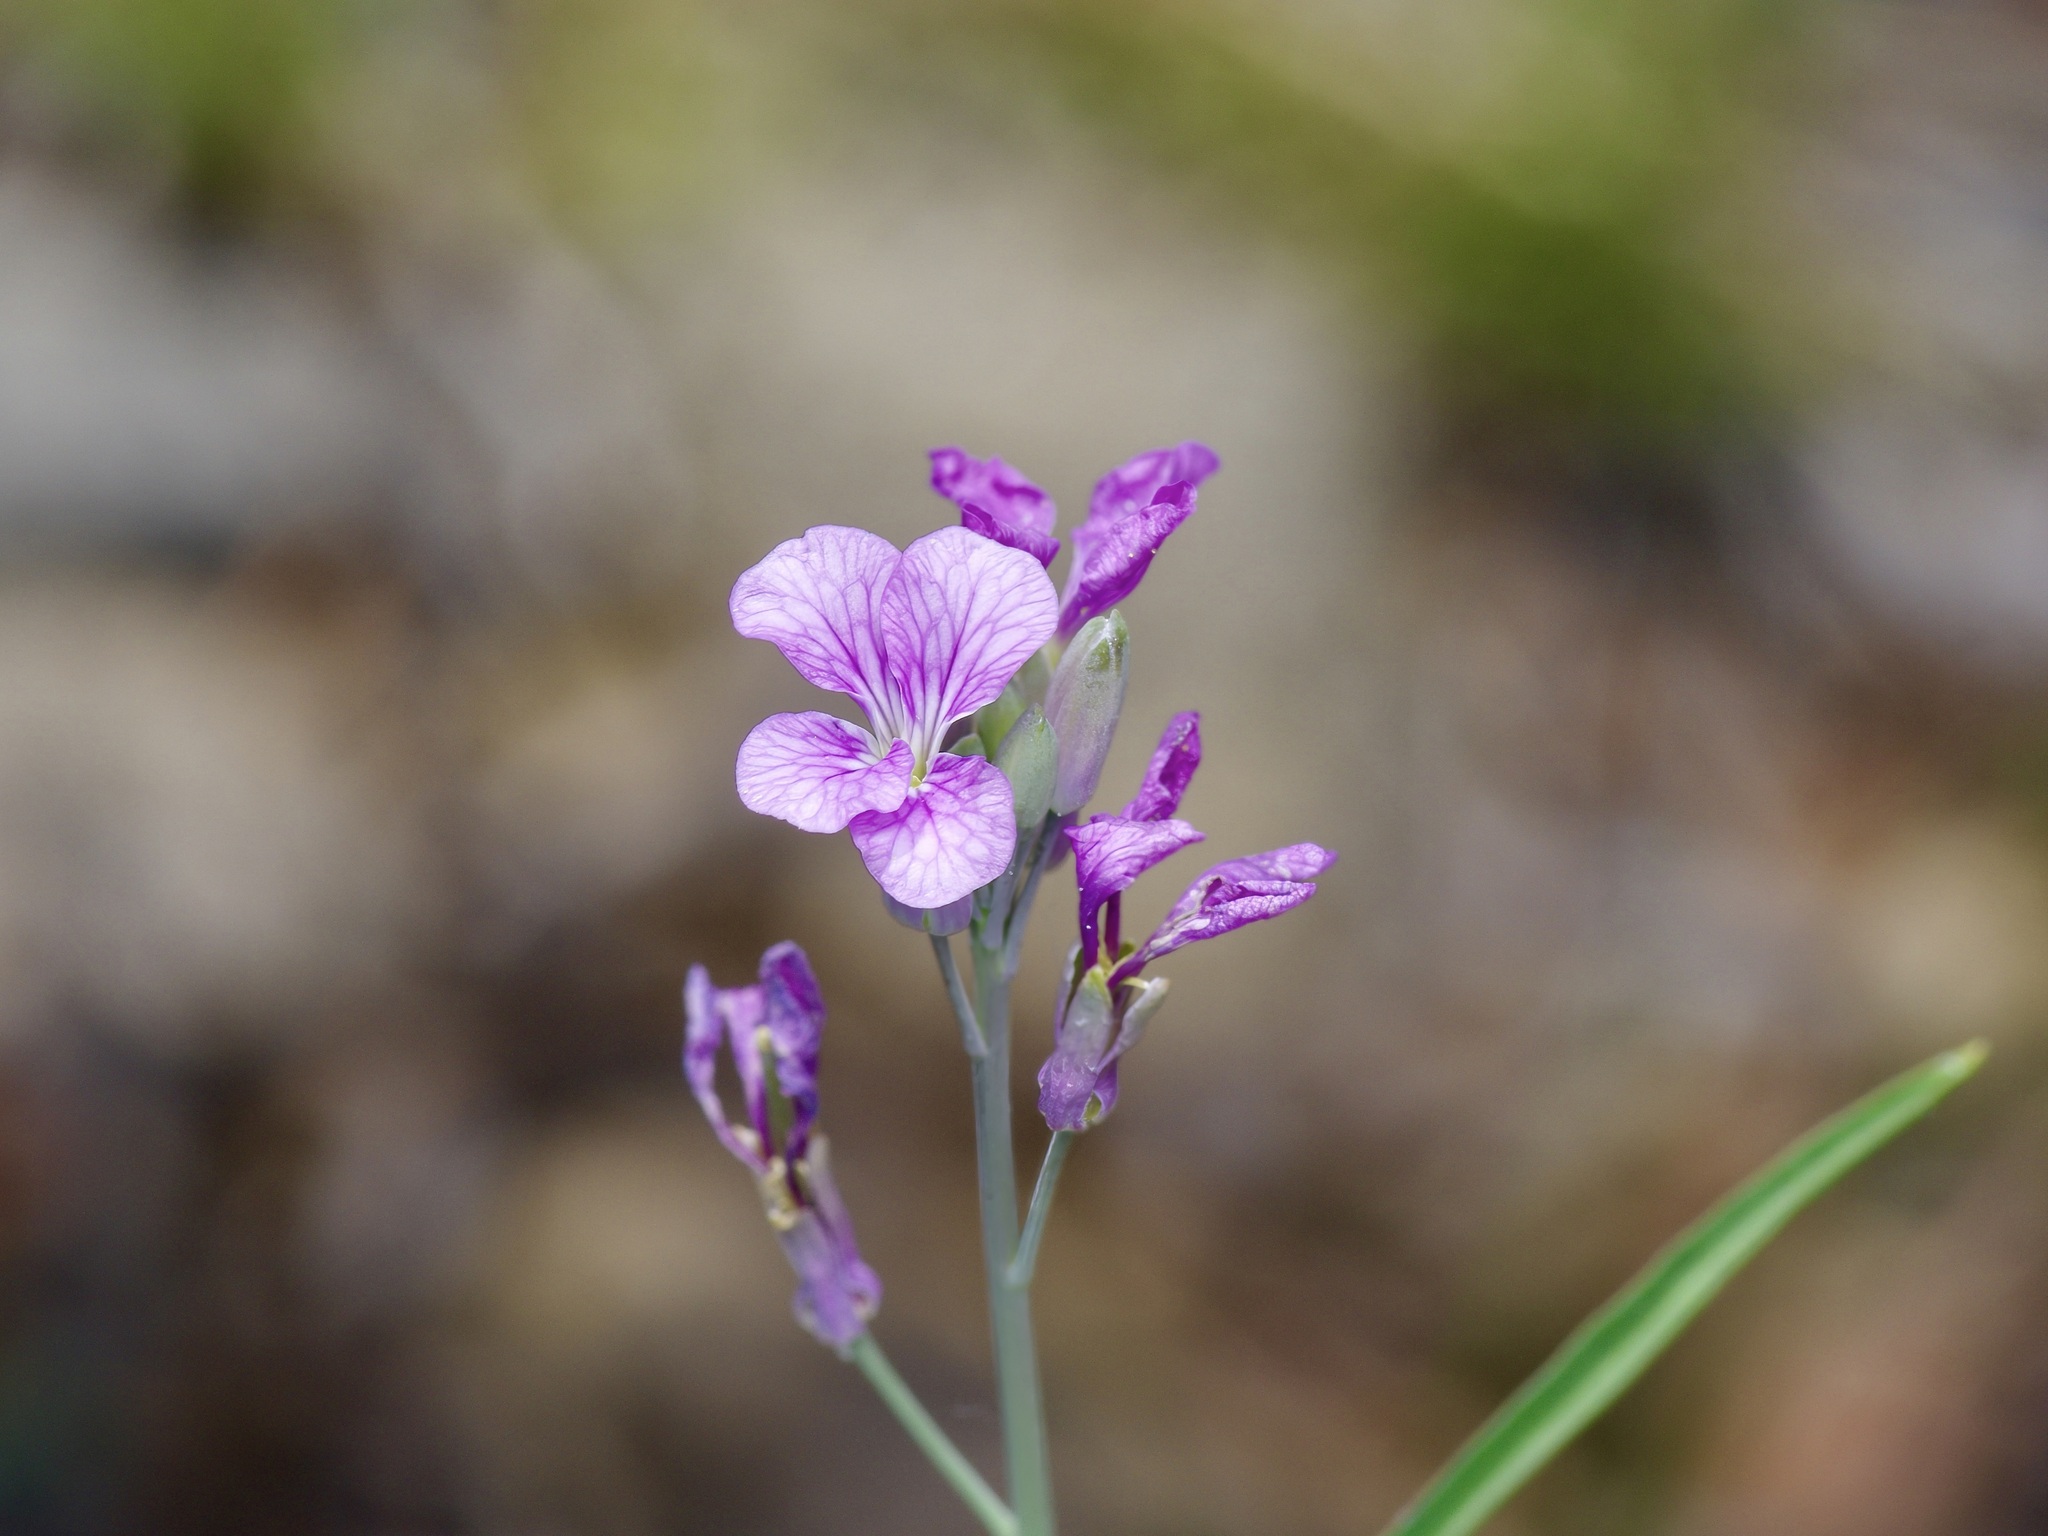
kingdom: Plantae
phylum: Tracheophyta
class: Magnoliopsida
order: Brassicales
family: Brassicaceae
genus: Hesperidanthus
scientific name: Hesperidanthus linearifolius
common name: Slim-leaf plains mustard
